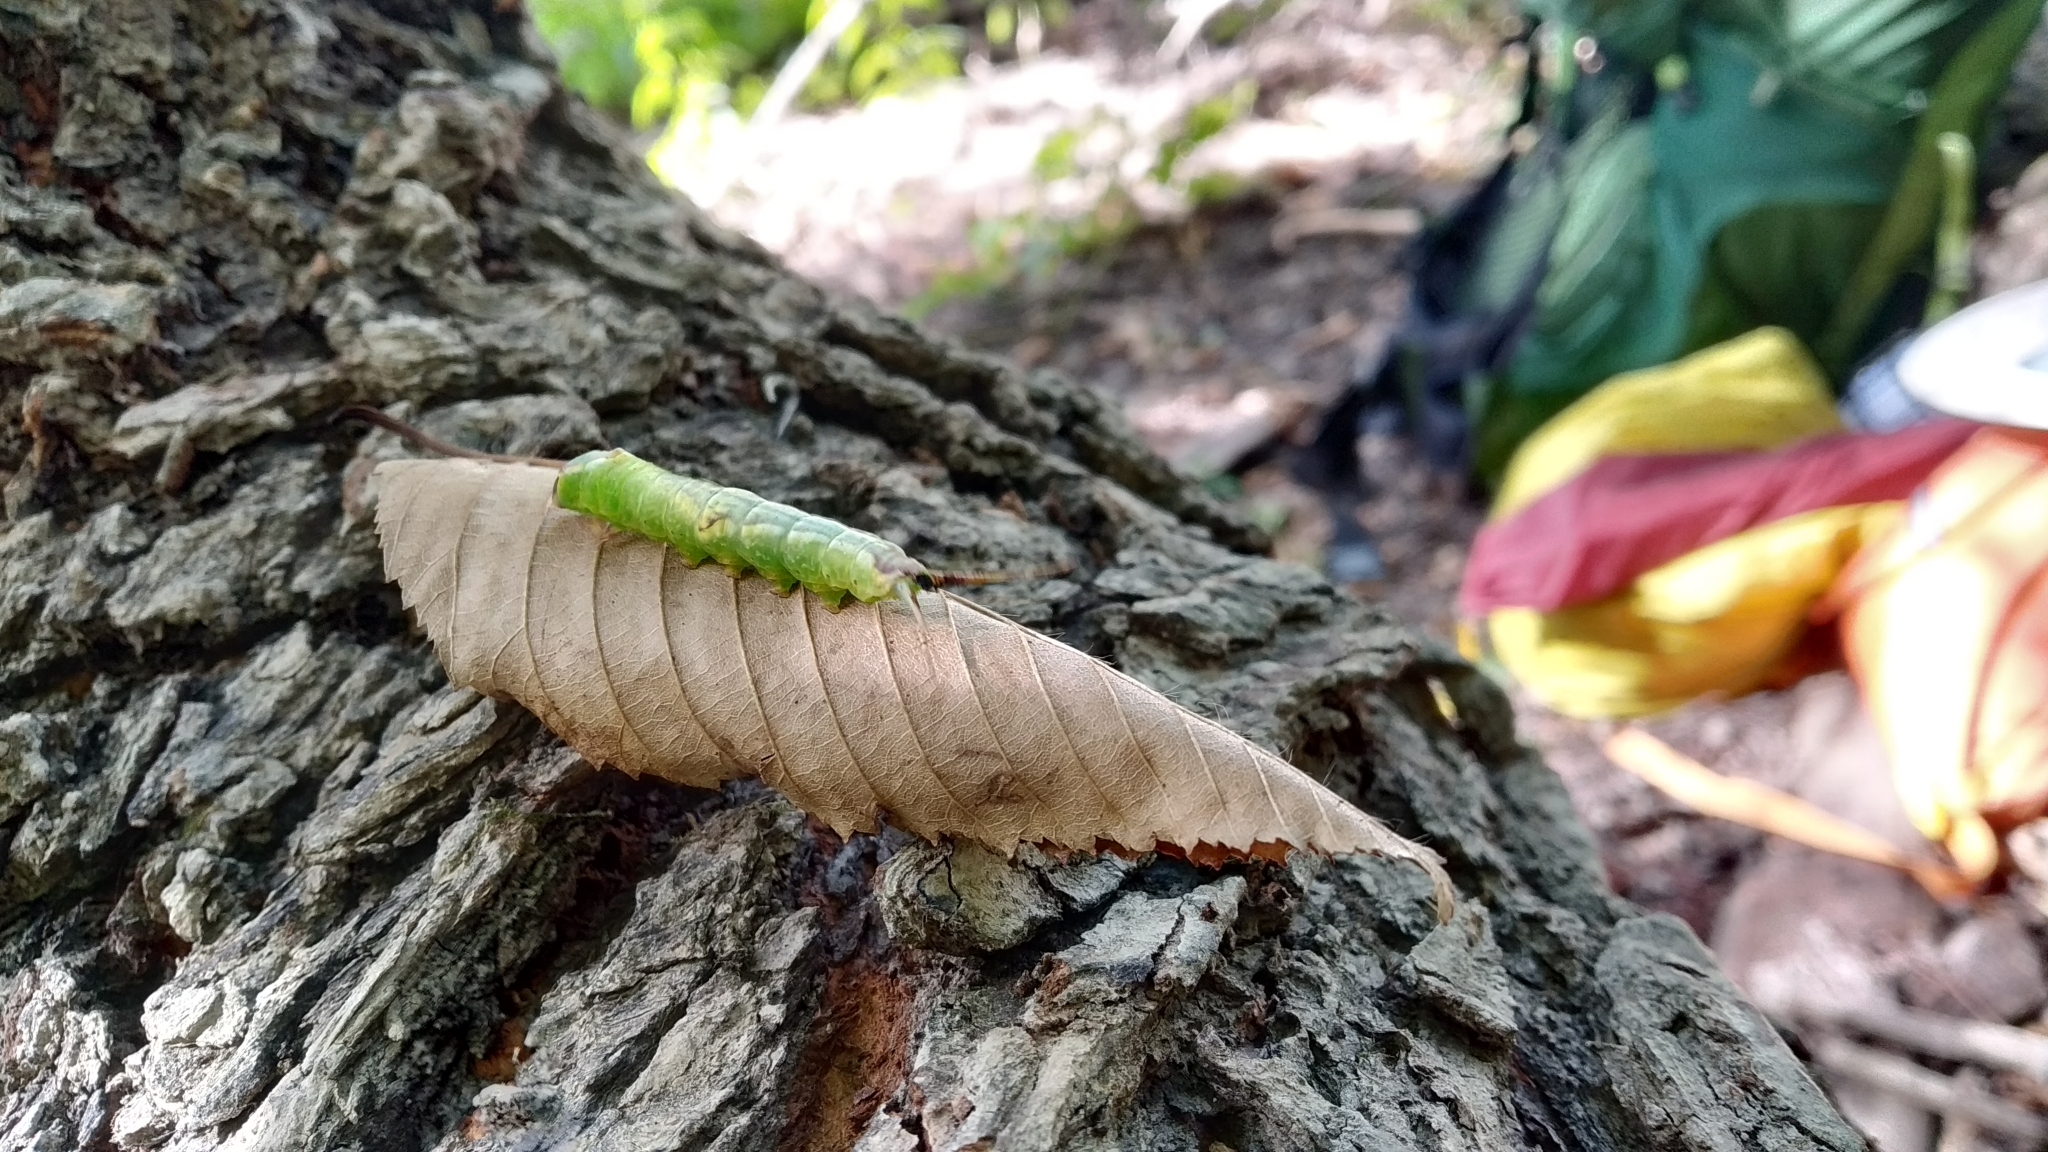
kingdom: Animalia
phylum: Arthropoda
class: Insecta
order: Lepidoptera
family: Notodontidae
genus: Furcula
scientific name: Furcula furcula
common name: Sallow kitten
